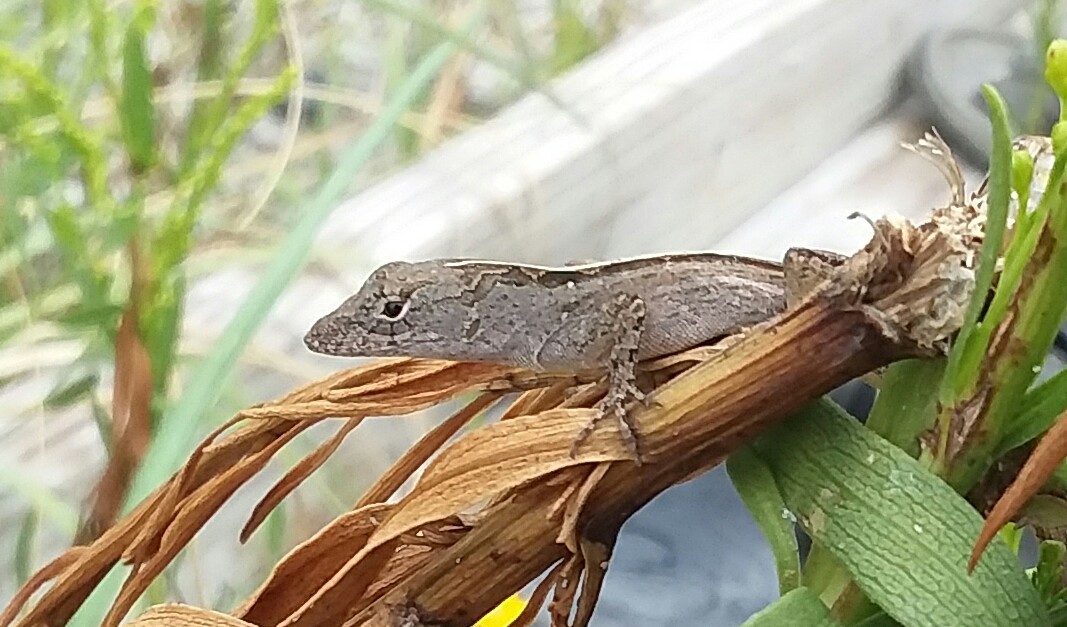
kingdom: Animalia
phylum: Chordata
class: Squamata
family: Dactyloidae
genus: Anolis
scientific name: Anolis sagrei
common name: Brown anole
